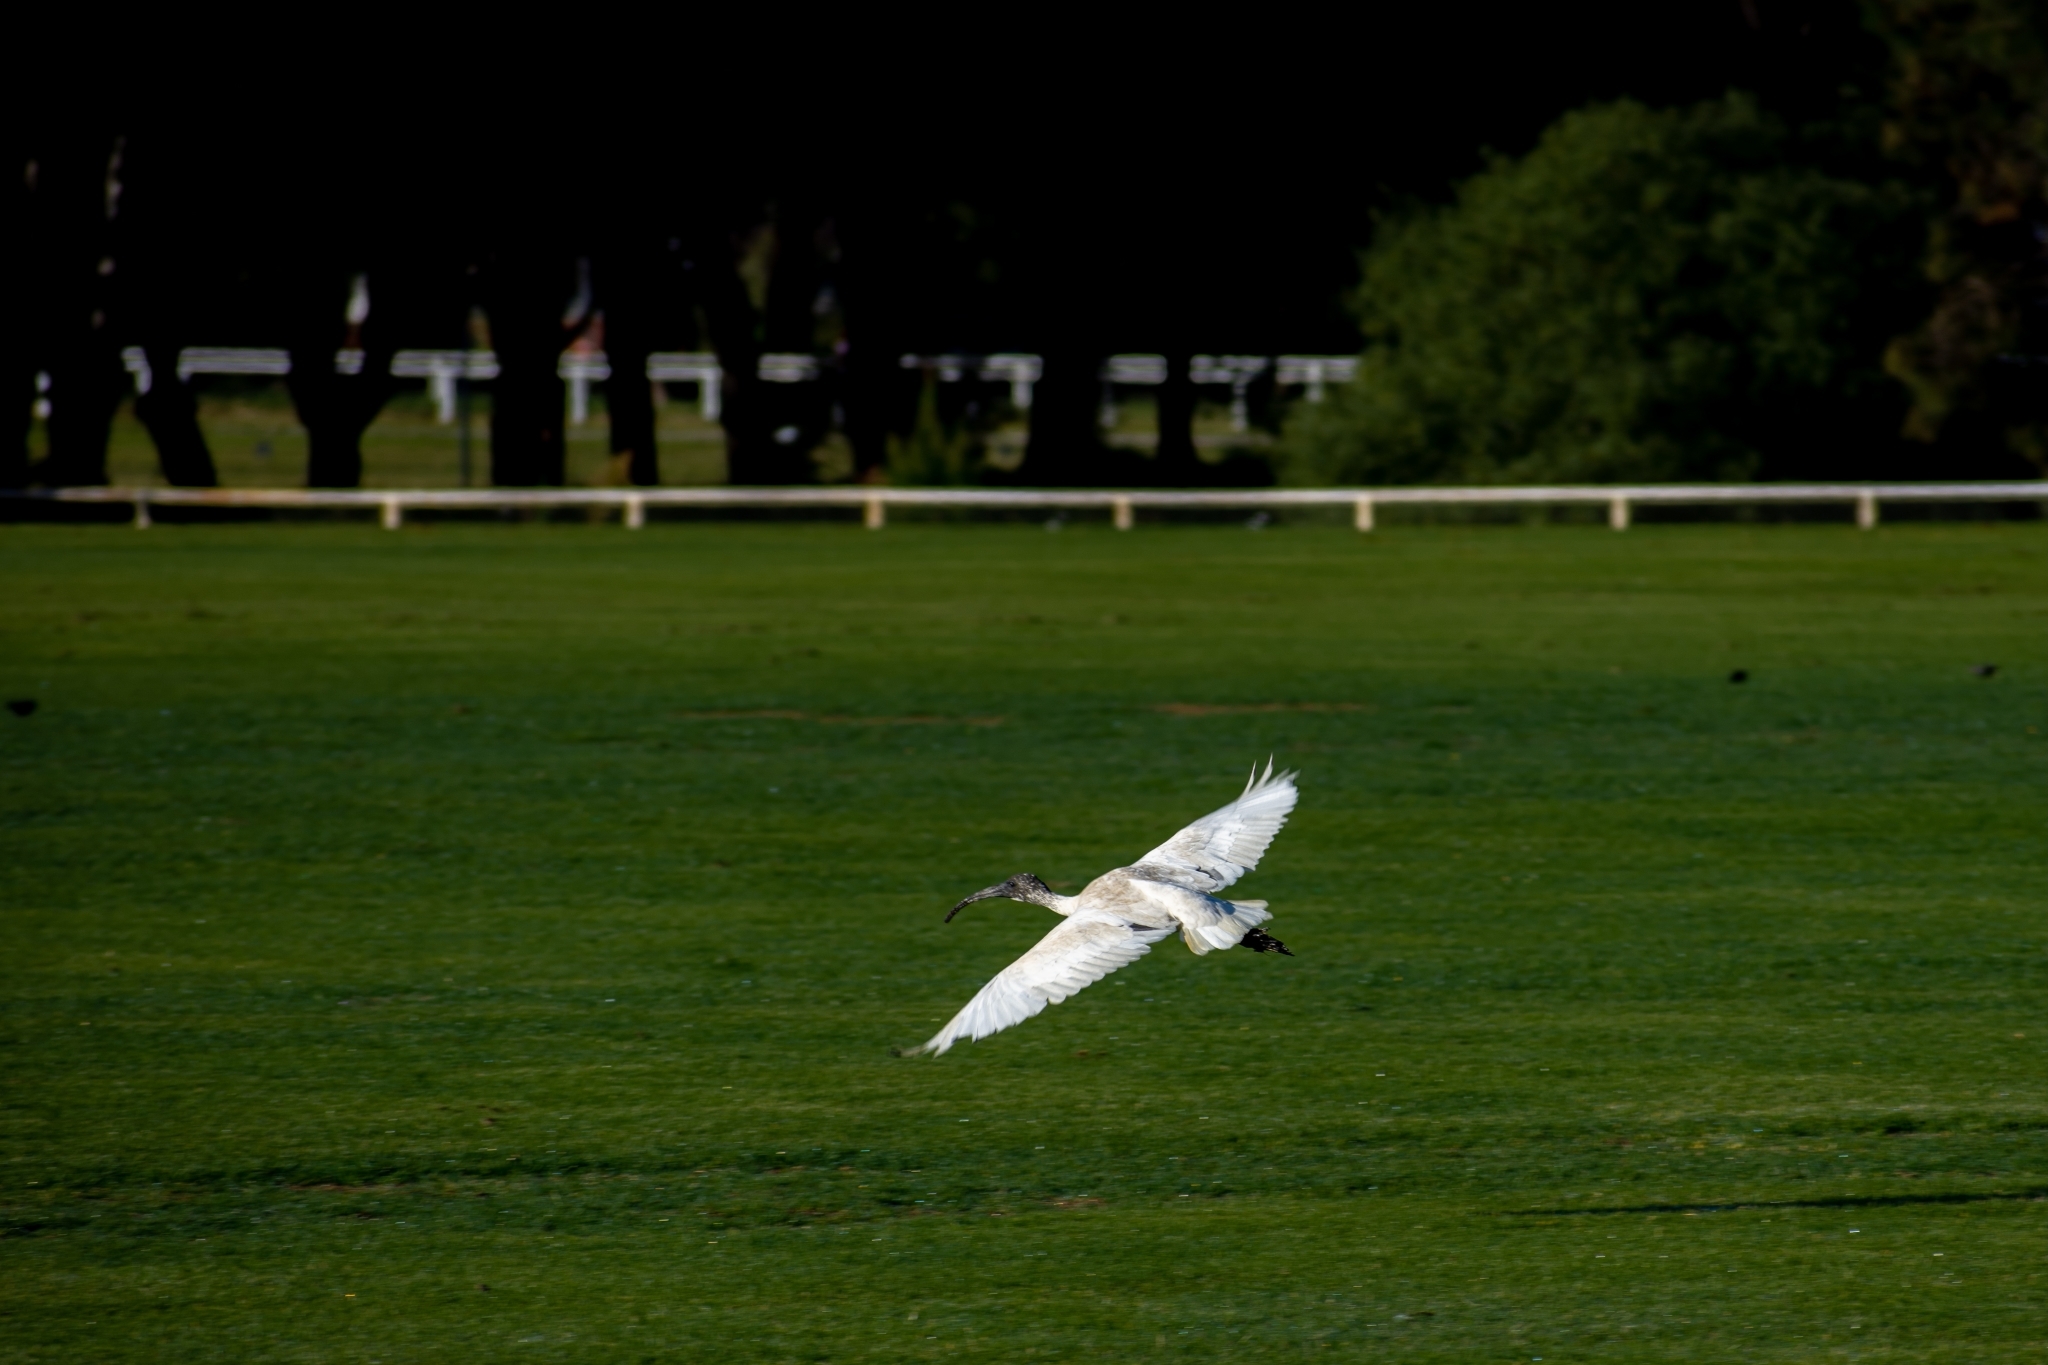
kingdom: Animalia
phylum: Chordata
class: Aves
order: Pelecaniformes
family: Threskiornithidae
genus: Threskiornis
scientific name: Threskiornis molucca
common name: Australian white ibis
